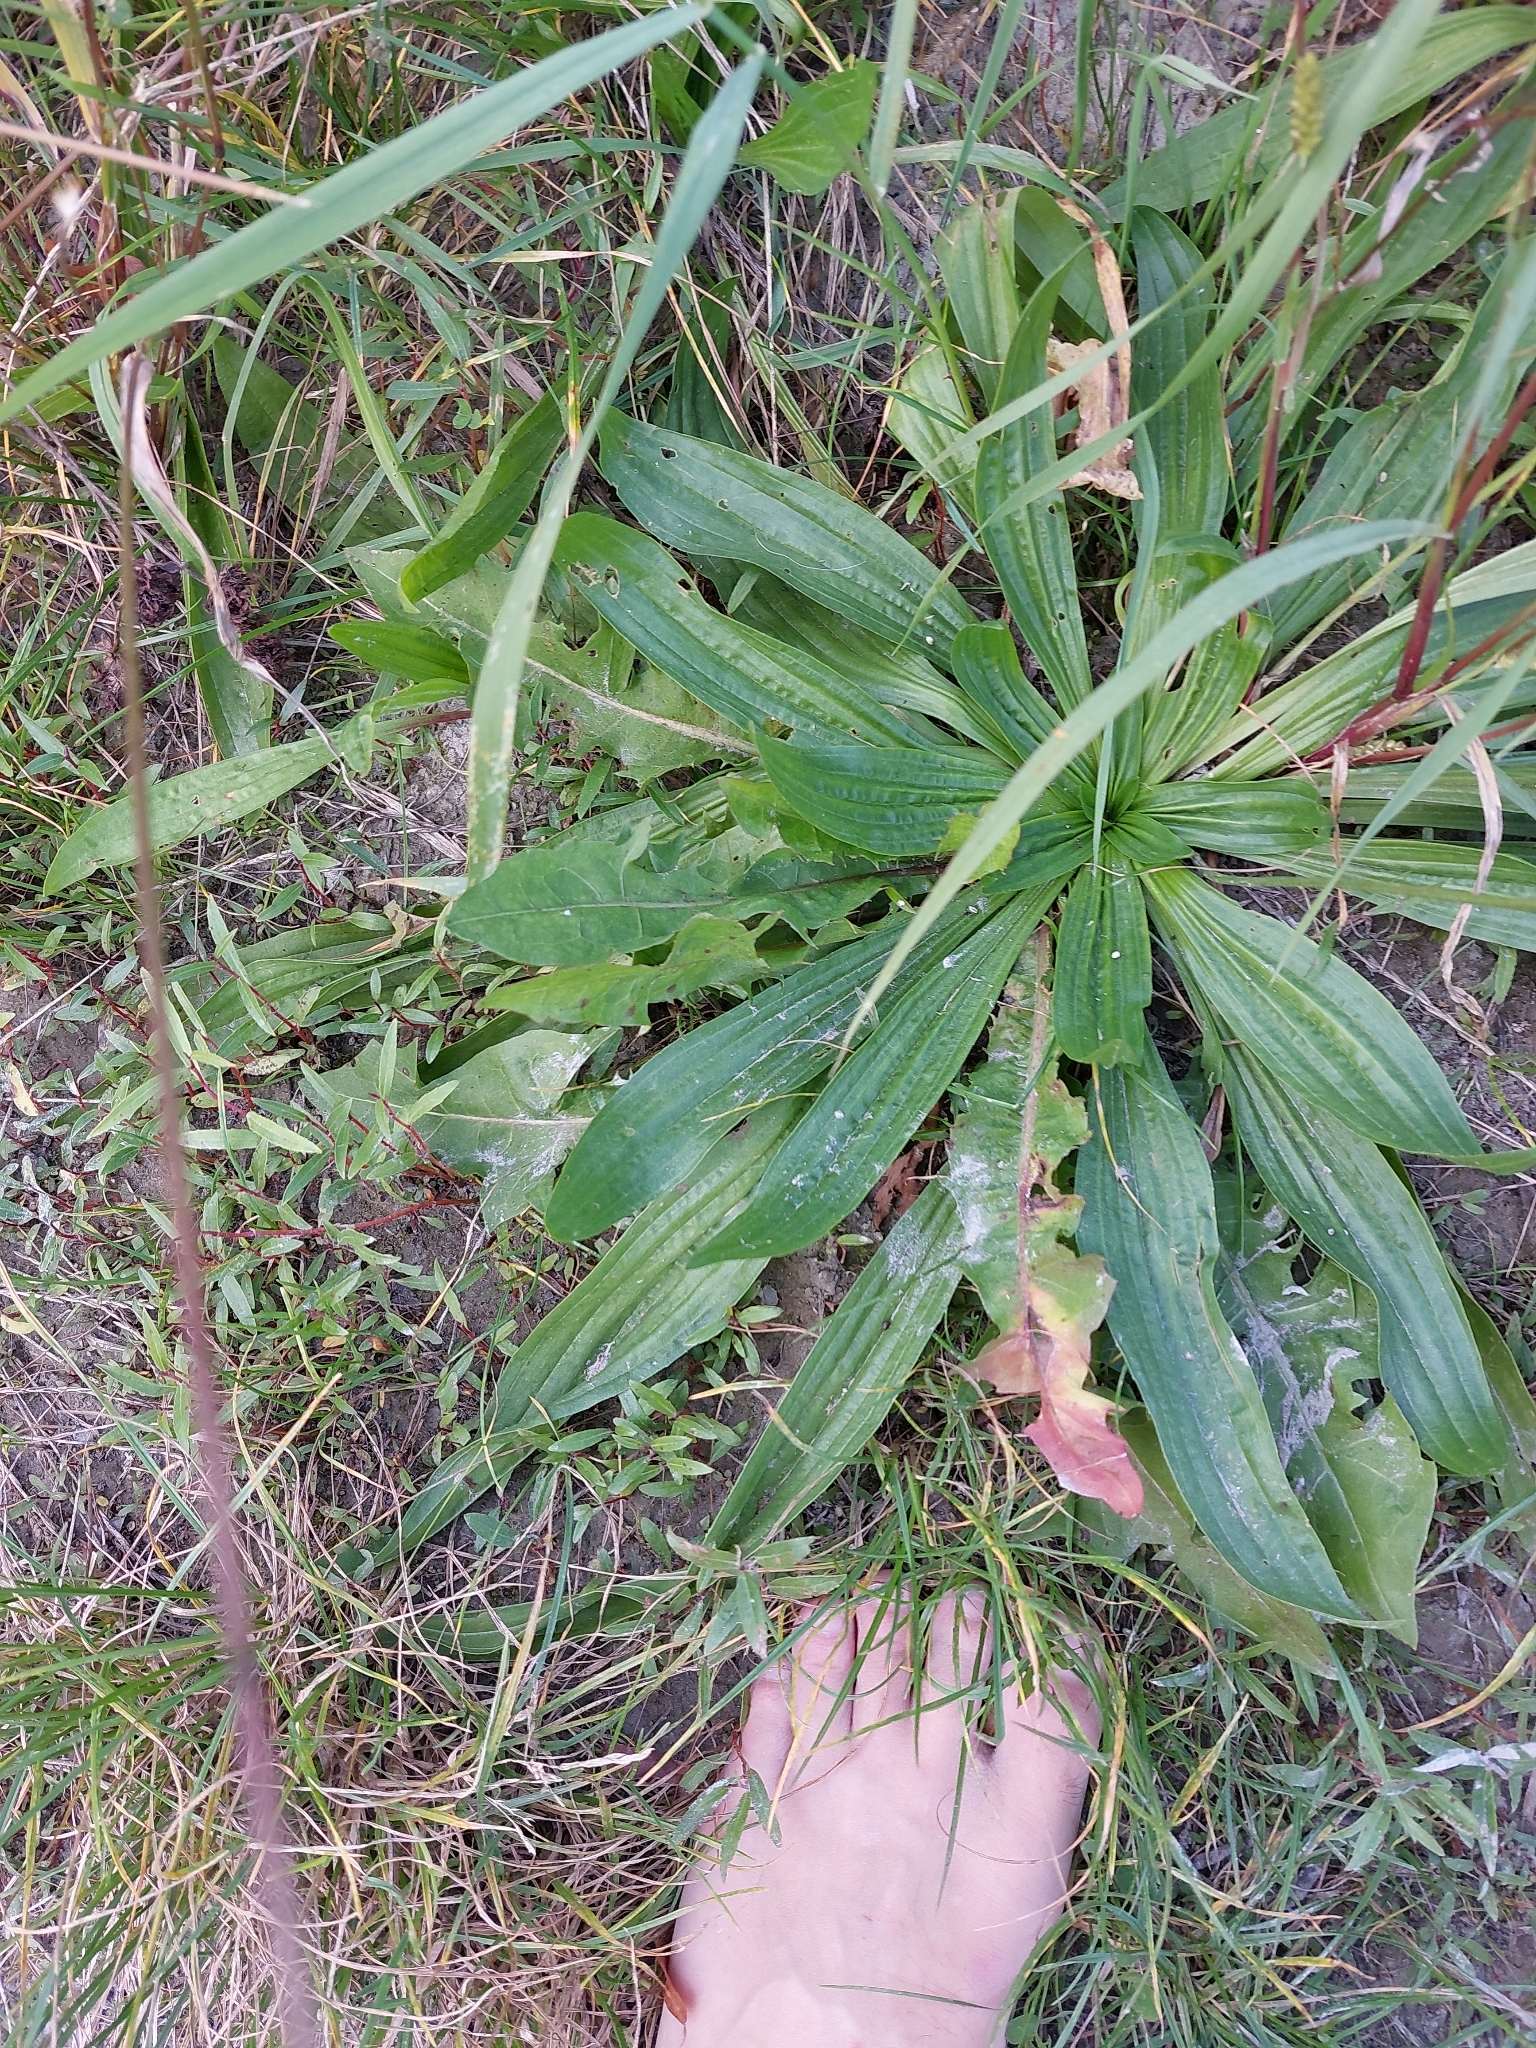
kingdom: Plantae
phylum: Tracheophyta
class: Magnoliopsida
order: Lamiales
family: Plantaginaceae
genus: Plantago
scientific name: Plantago lanceolata
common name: Ribwort plantain
